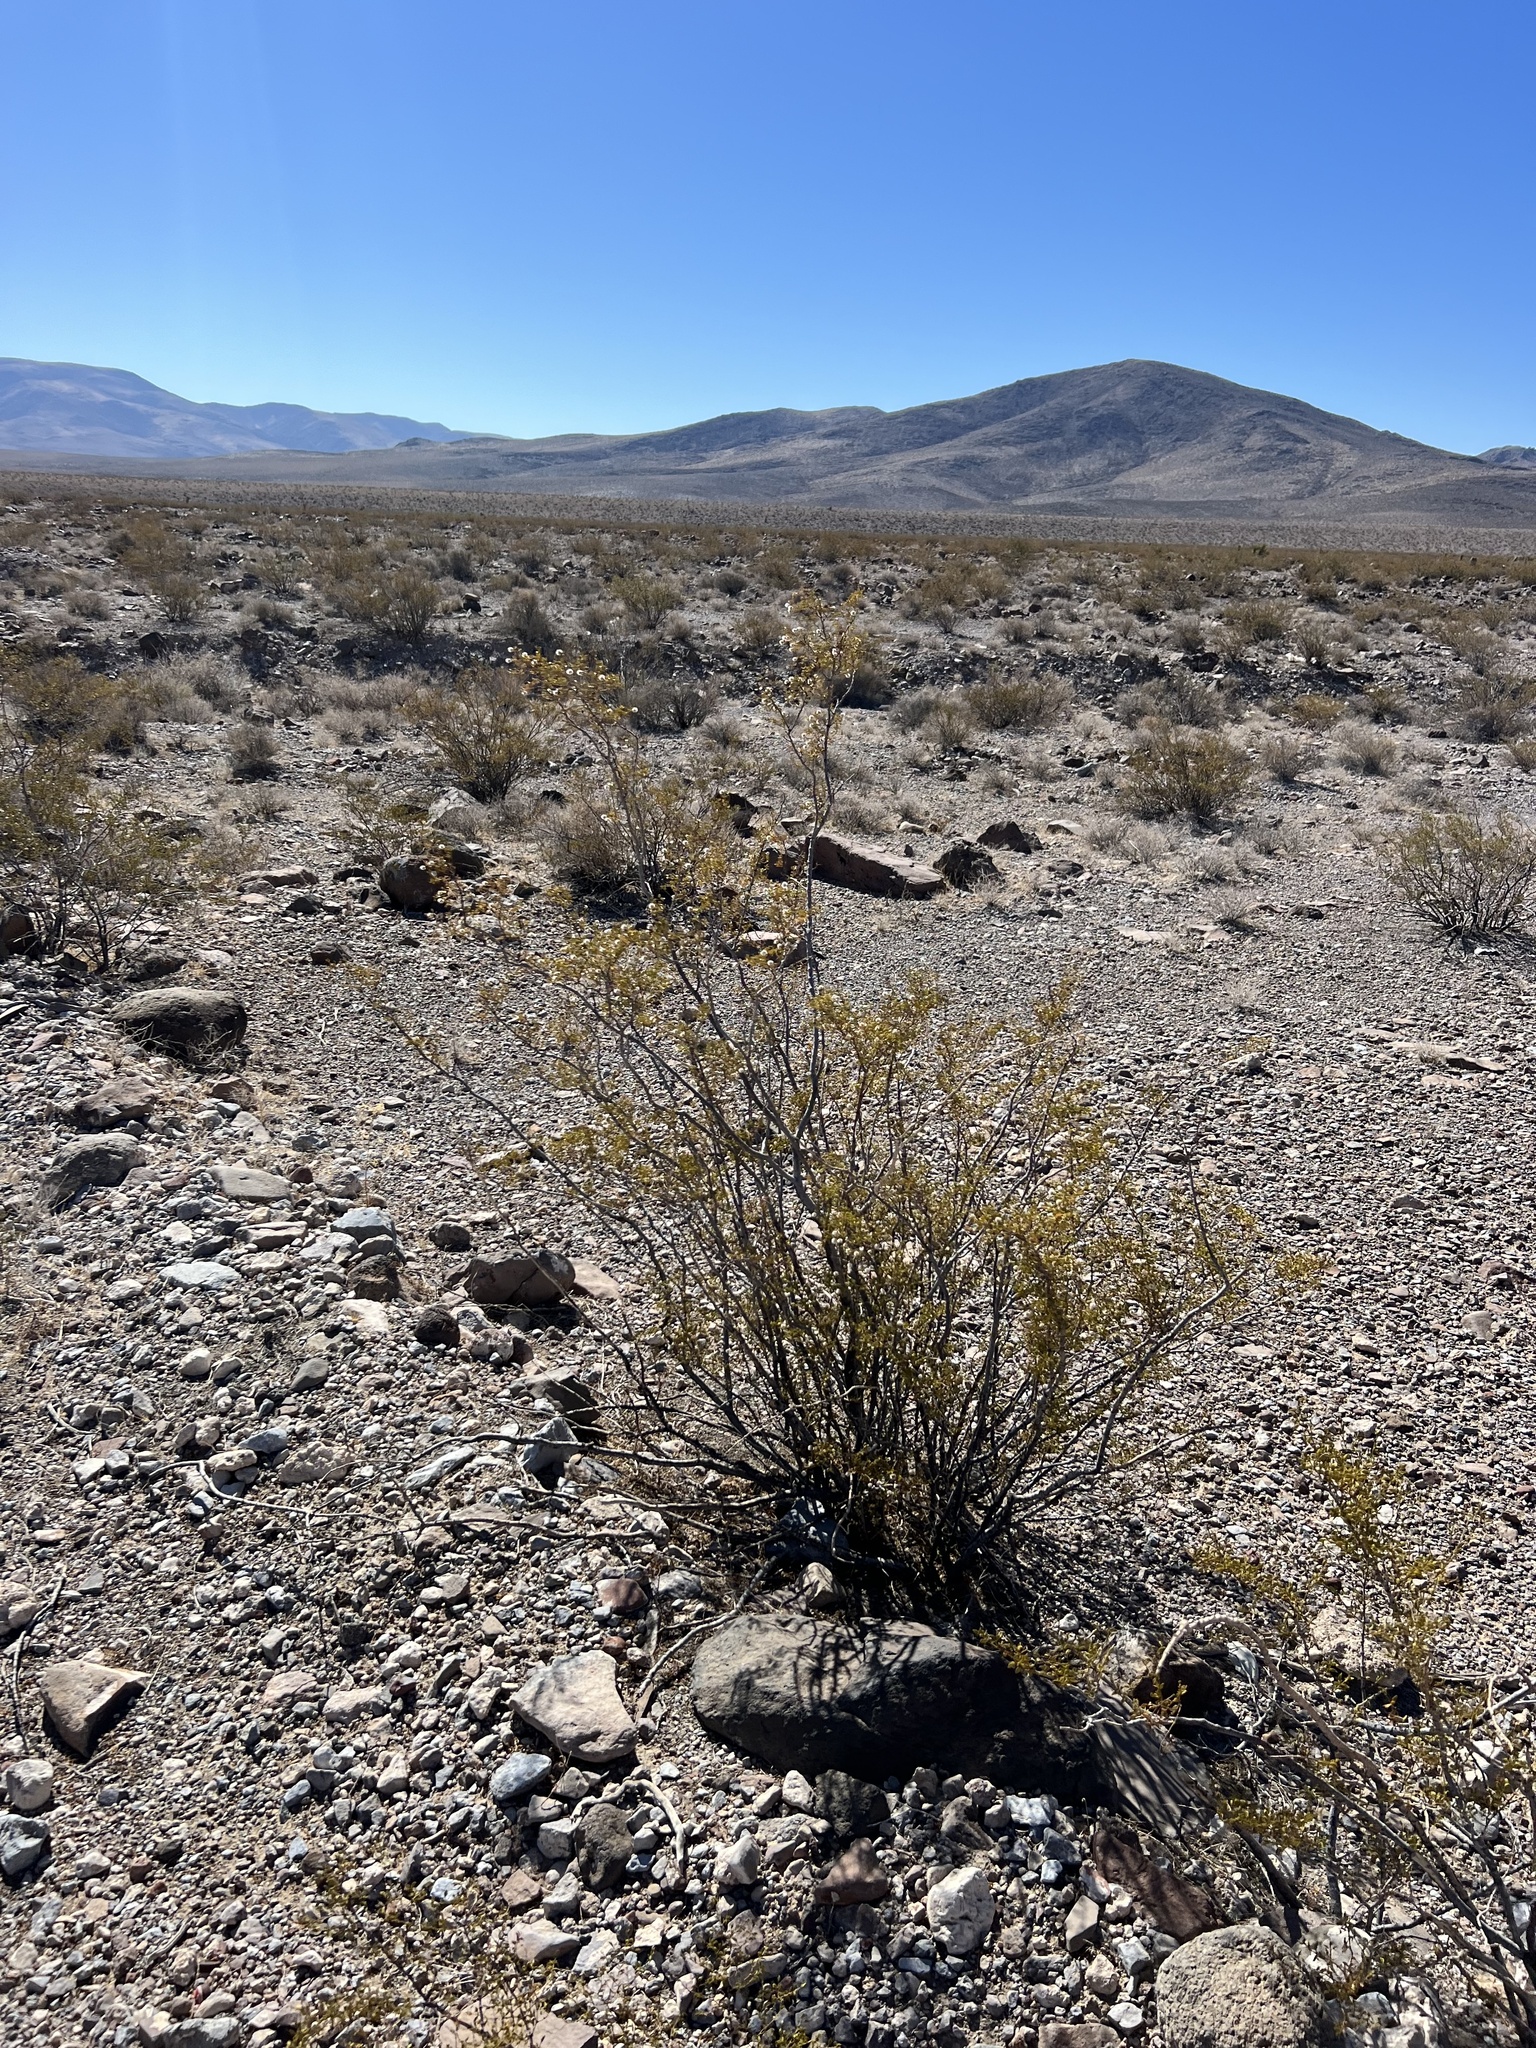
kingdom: Plantae
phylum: Tracheophyta
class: Magnoliopsida
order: Zygophyllales
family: Zygophyllaceae
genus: Larrea
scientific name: Larrea tridentata
